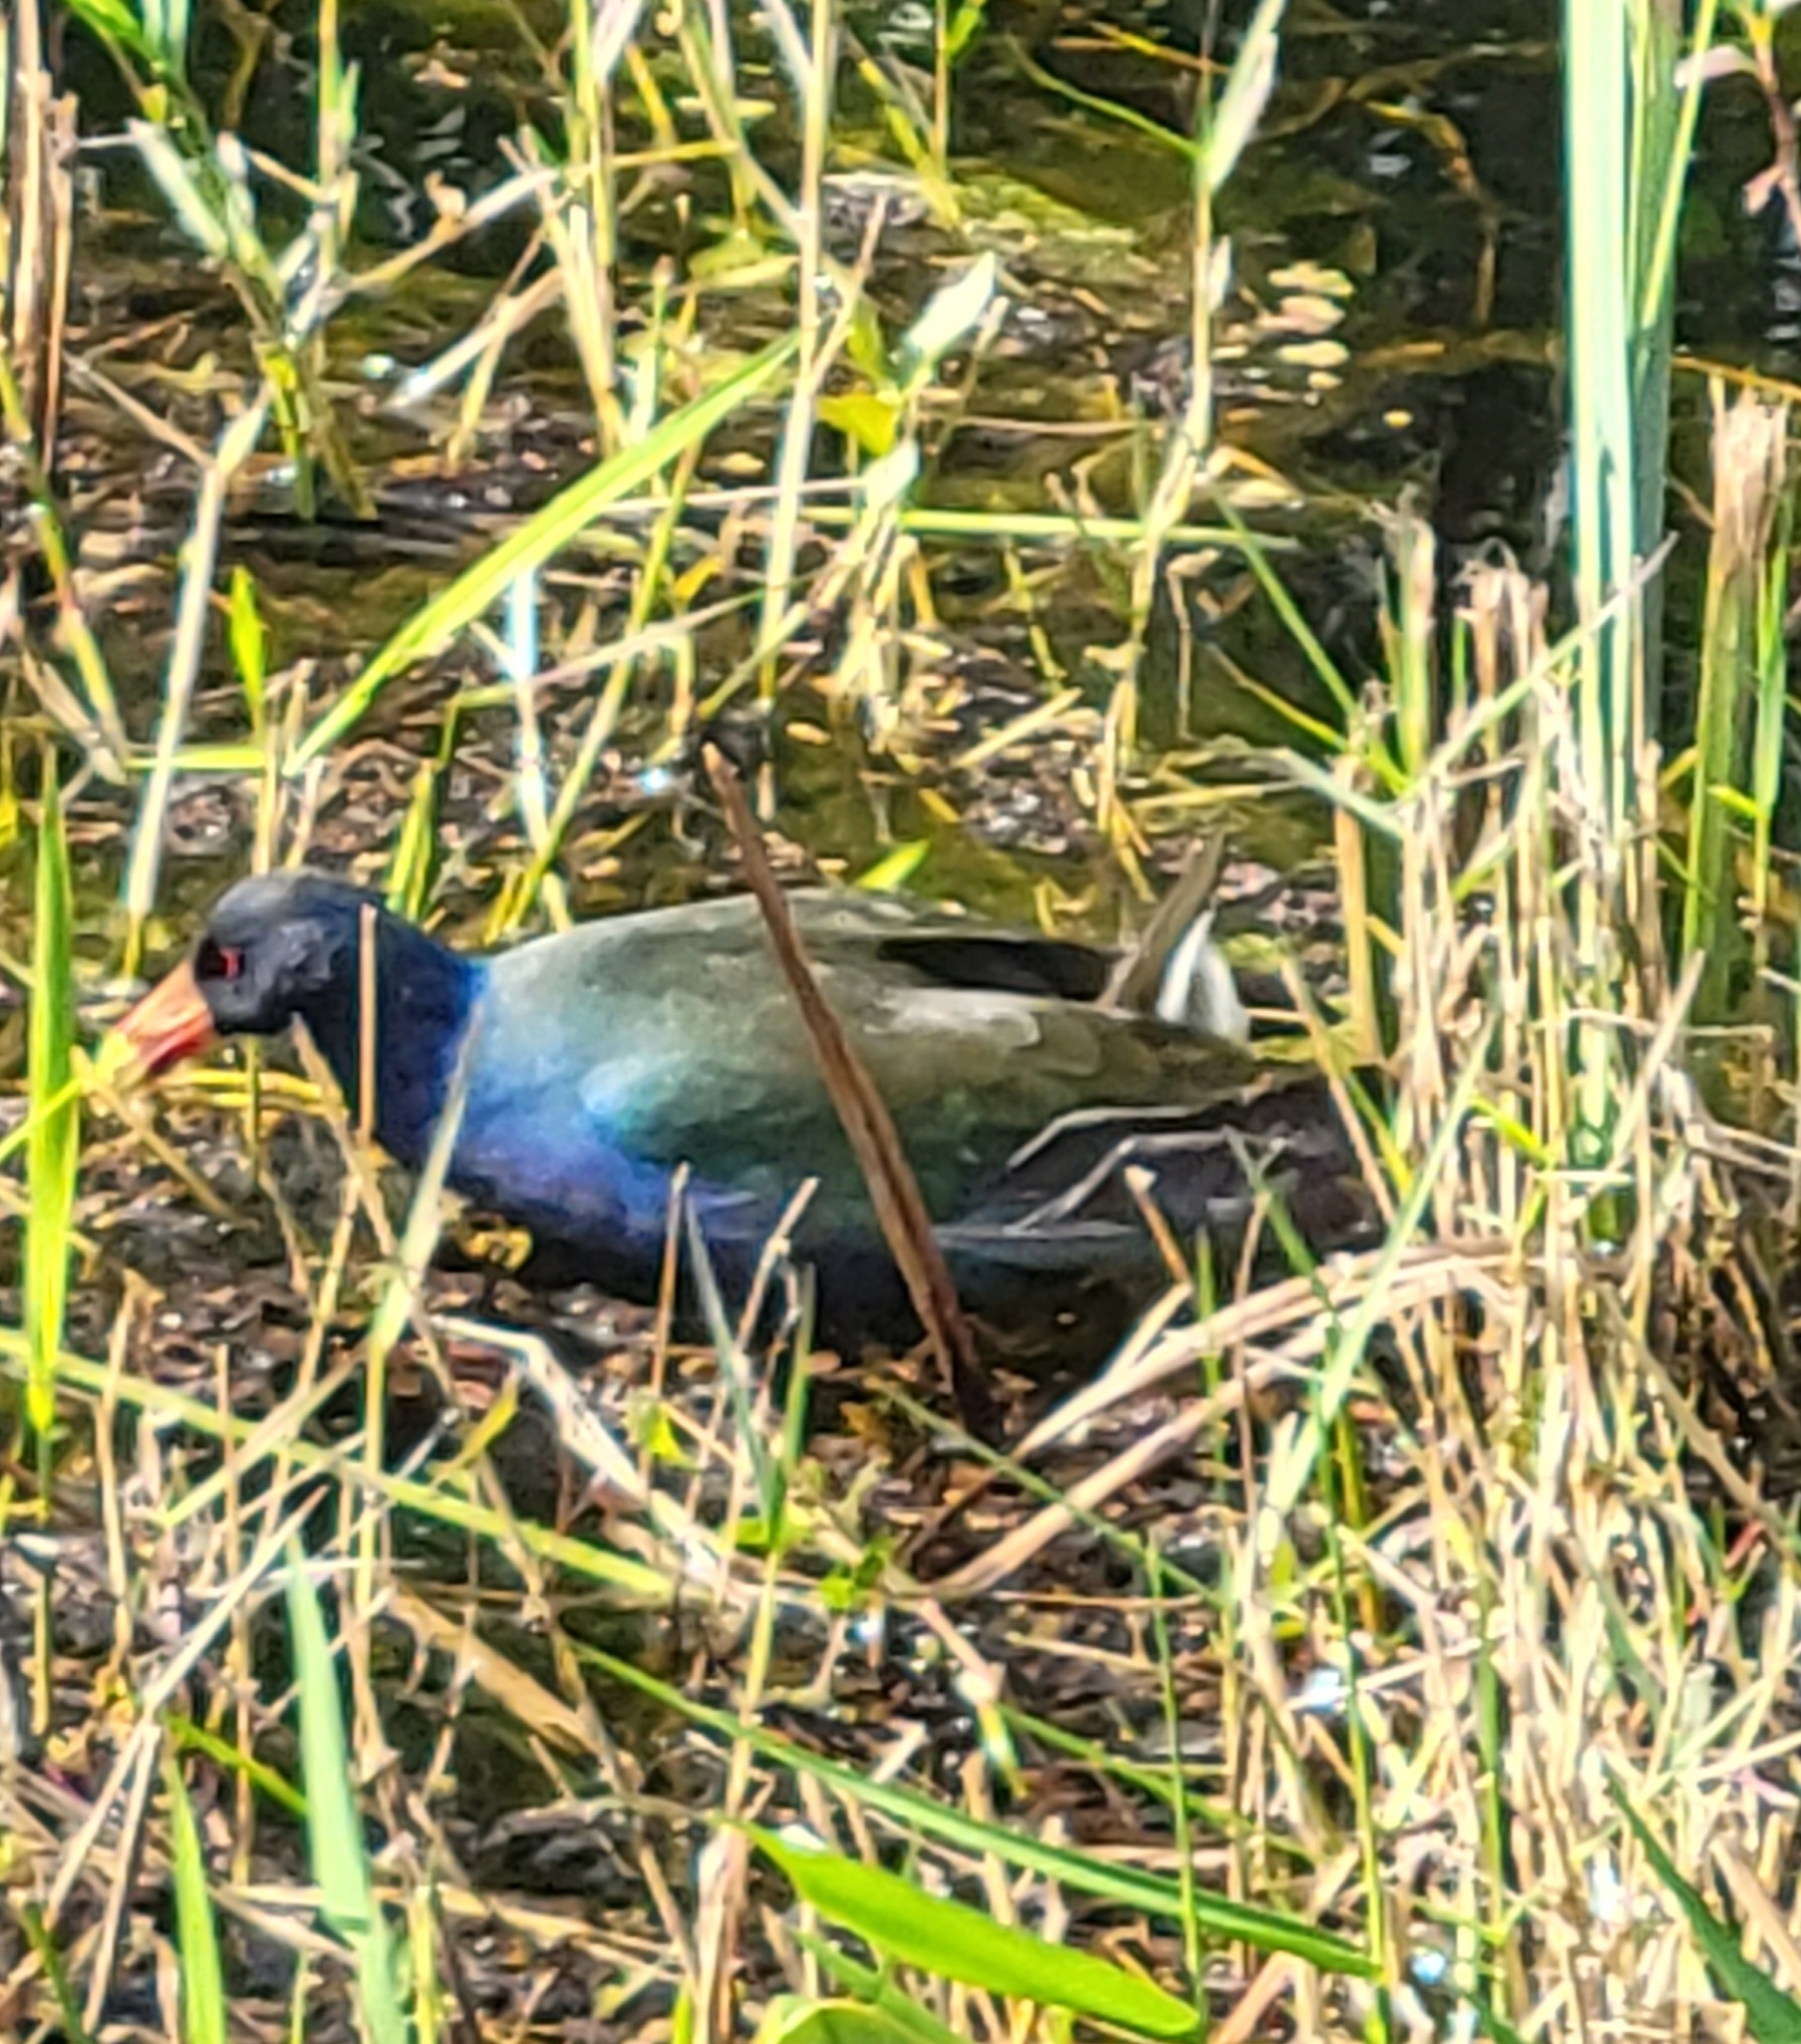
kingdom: Animalia
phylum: Chordata
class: Aves
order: Gruiformes
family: Rallidae
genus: Porphyrio
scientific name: Porphyrio martinica
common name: Purple gallinule
